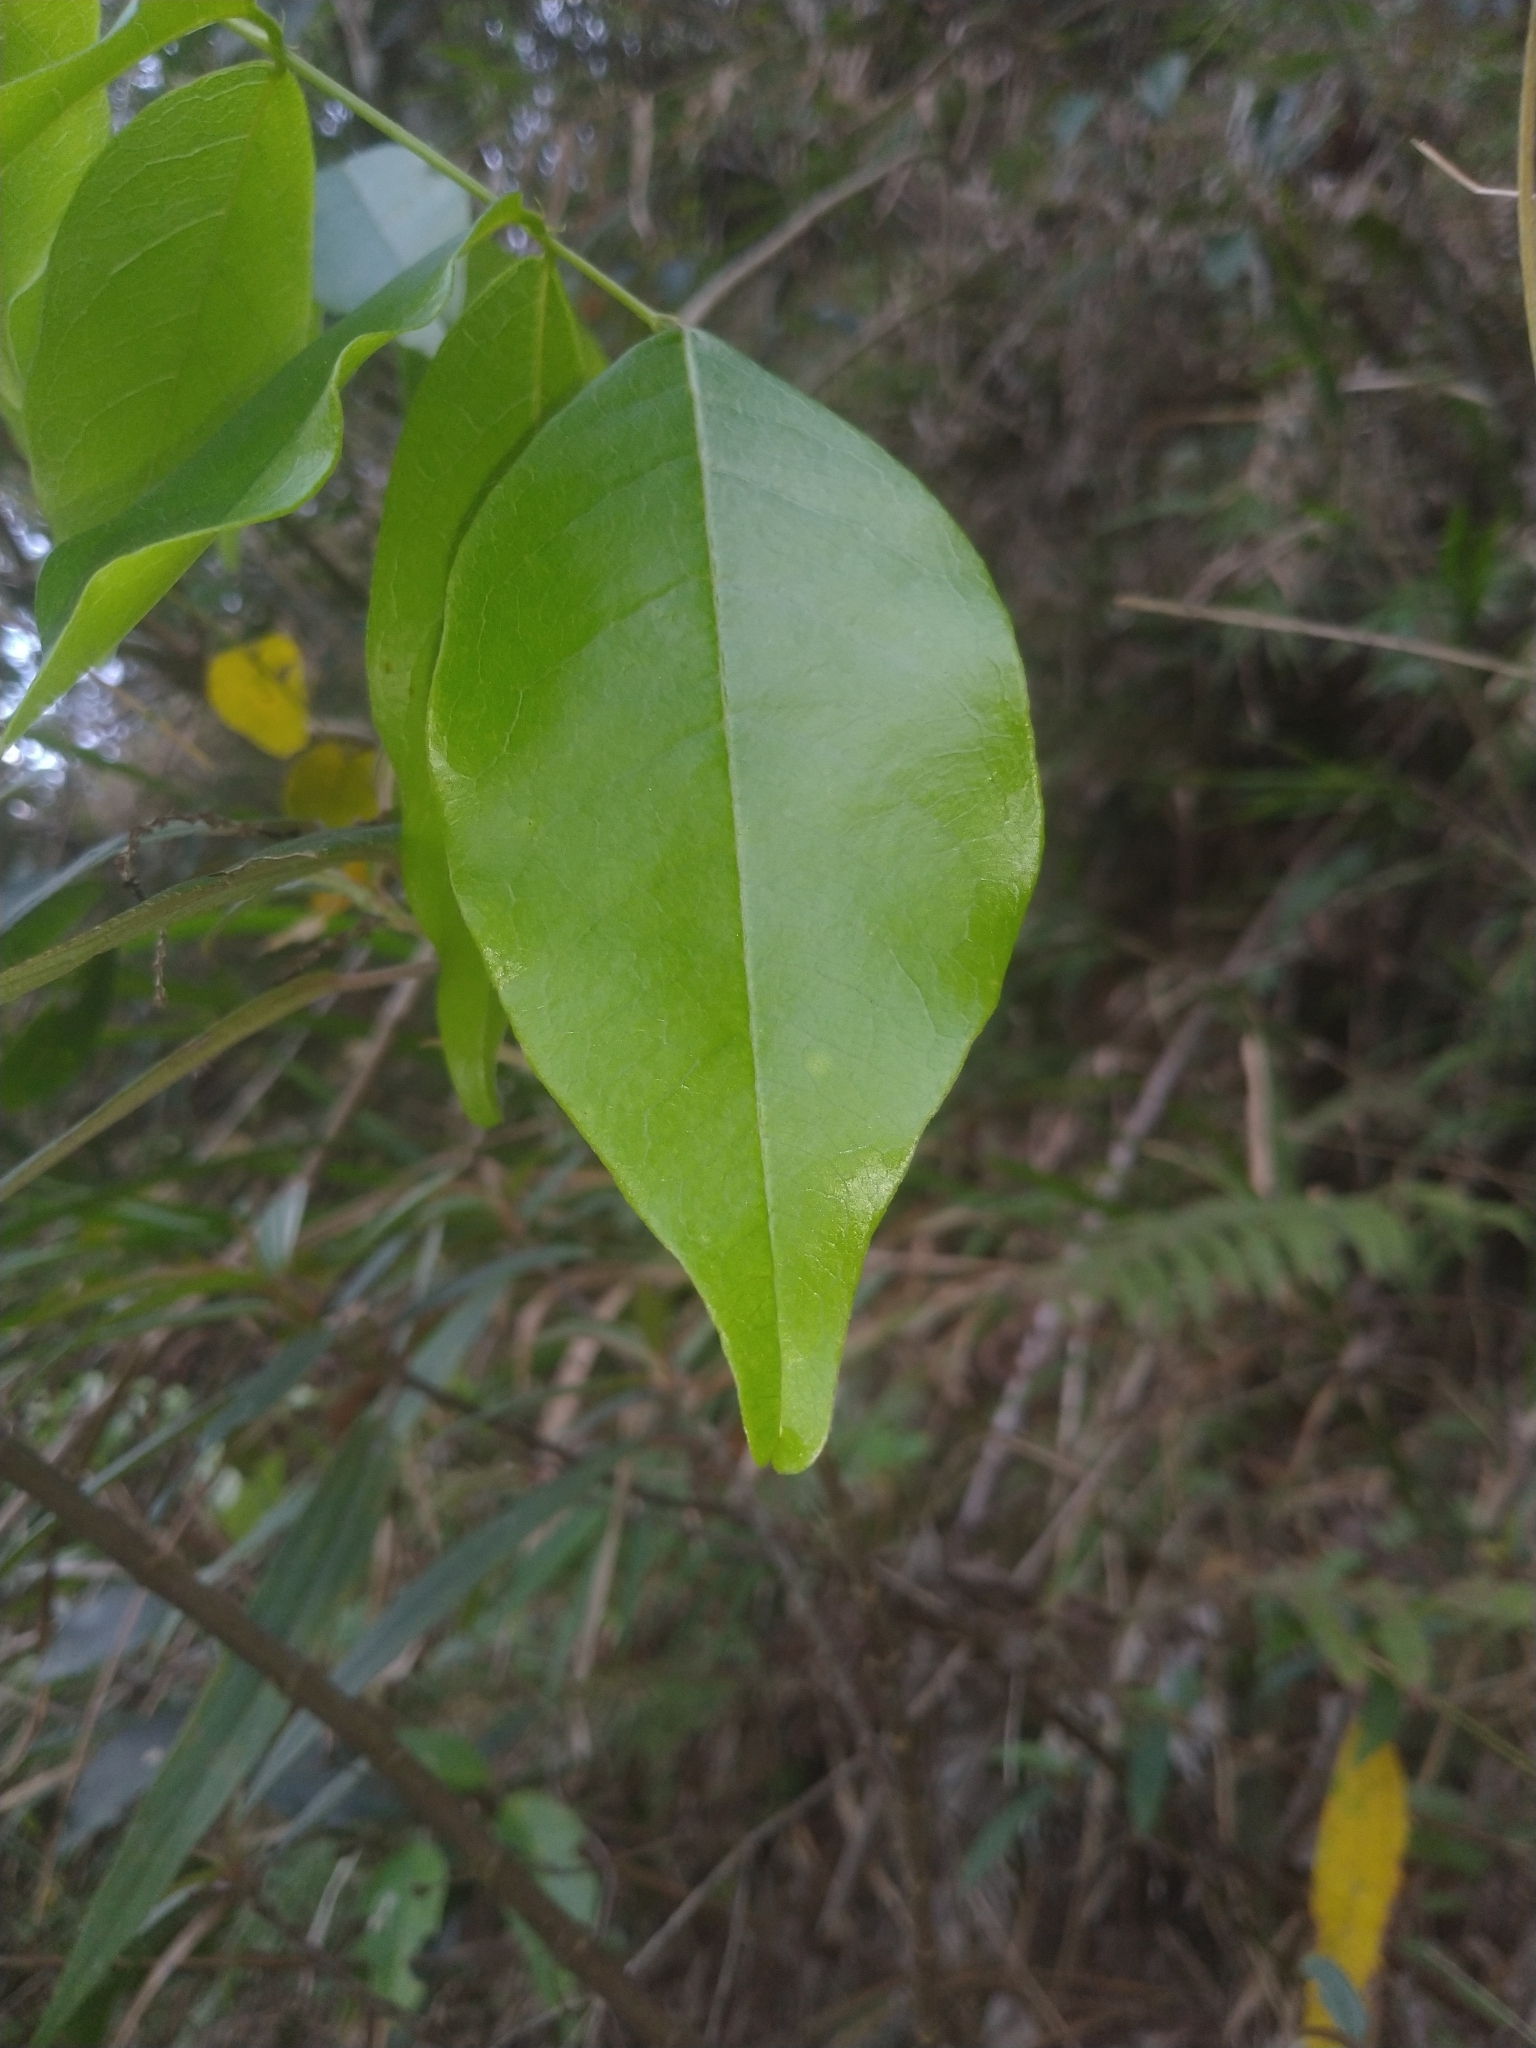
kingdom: Plantae
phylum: Tracheophyta
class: Magnoliopsida
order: Fabales
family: Fabaceae
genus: Wisteriopsis
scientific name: Wisteriopsis reticulata
